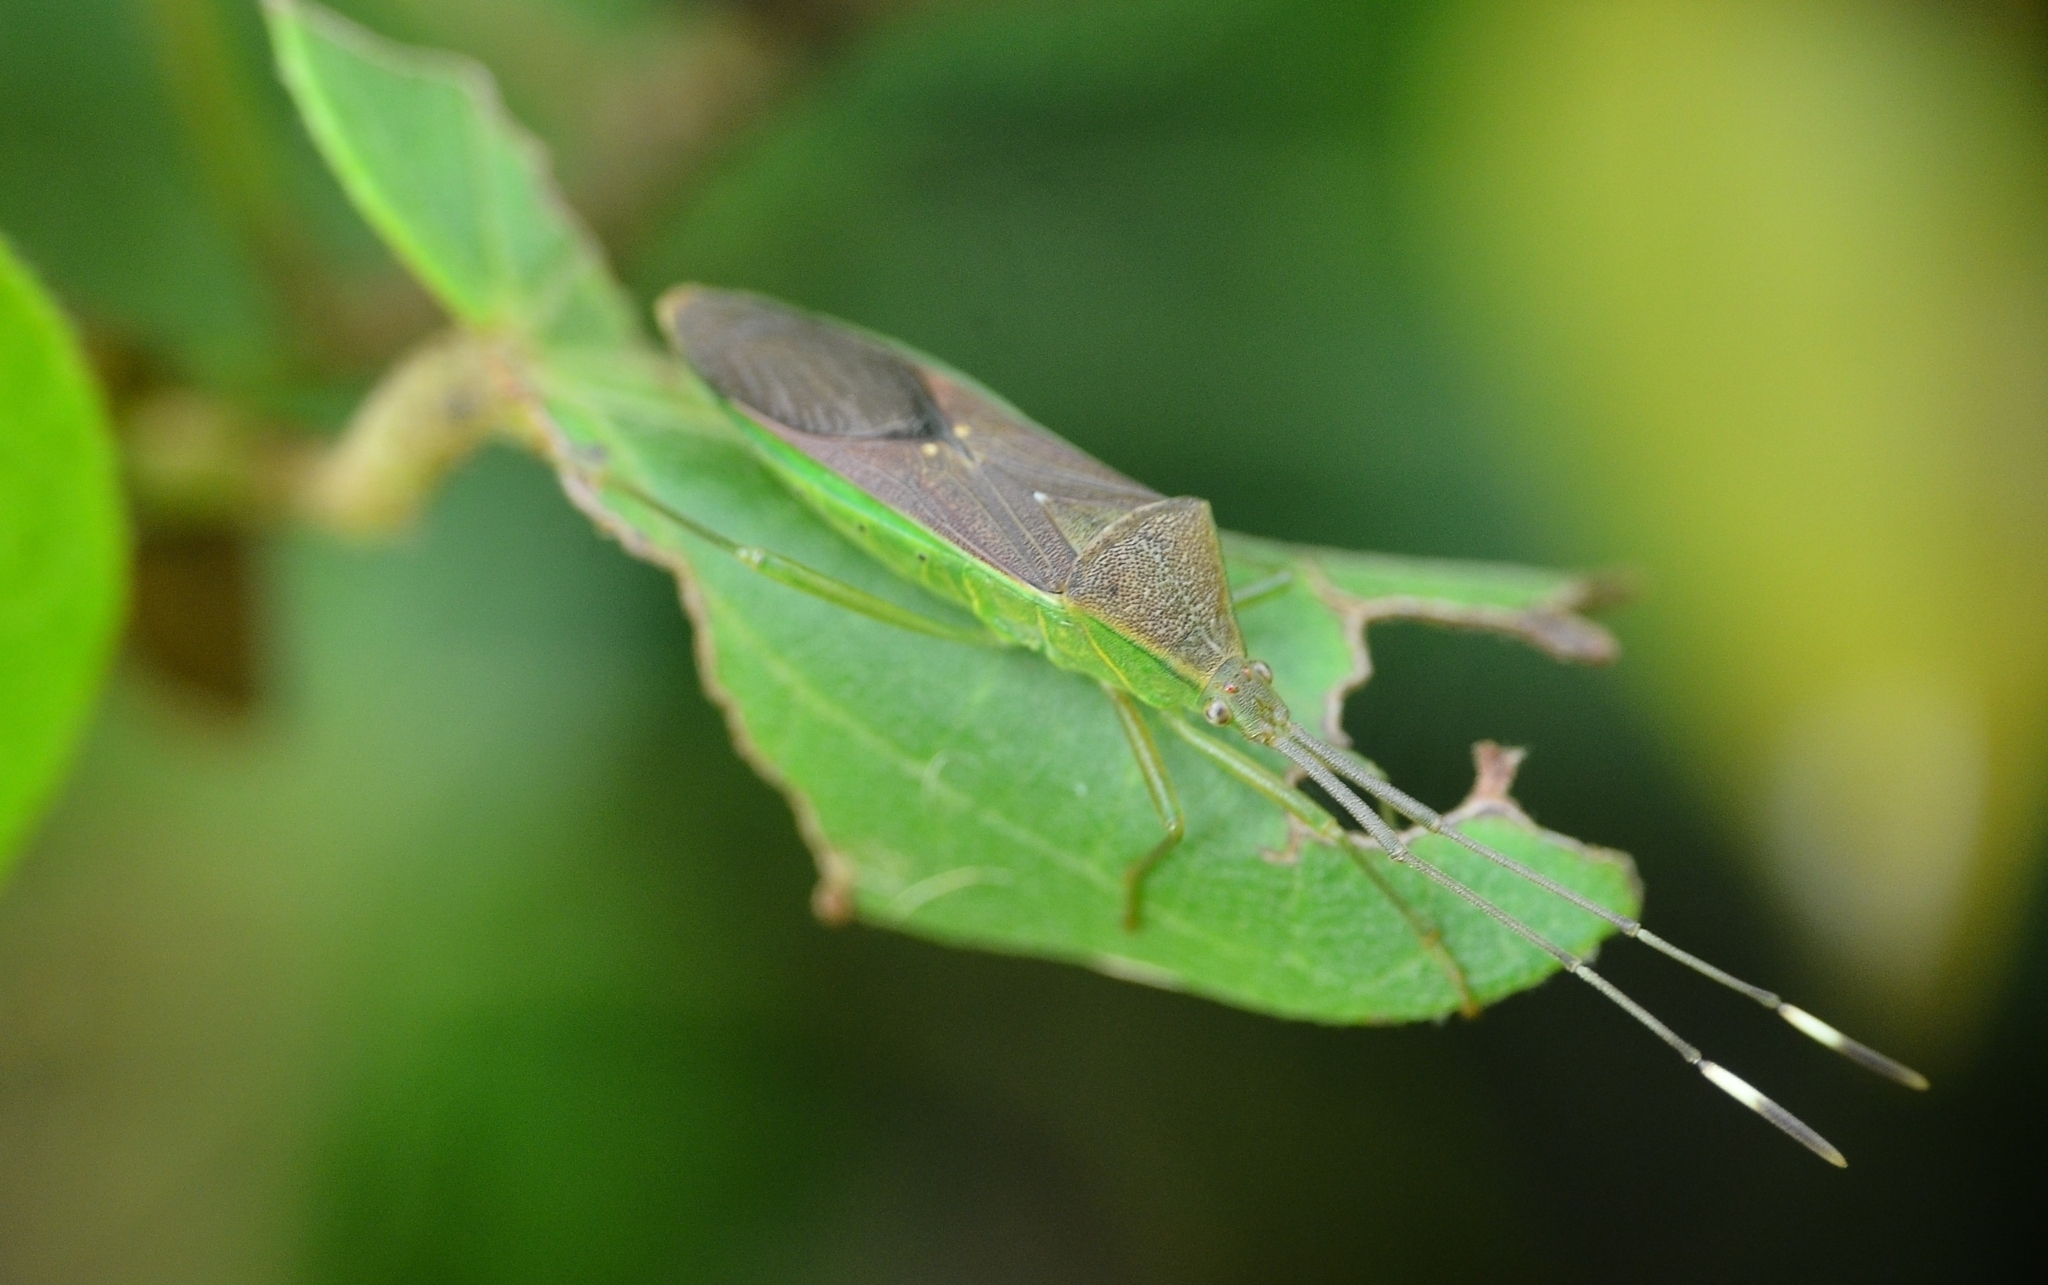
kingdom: Animalia
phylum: Arthropoda
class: Insecta
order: Hemiptera
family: Coreidae
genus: Homoeocerus
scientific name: Homoeocerus relatus
